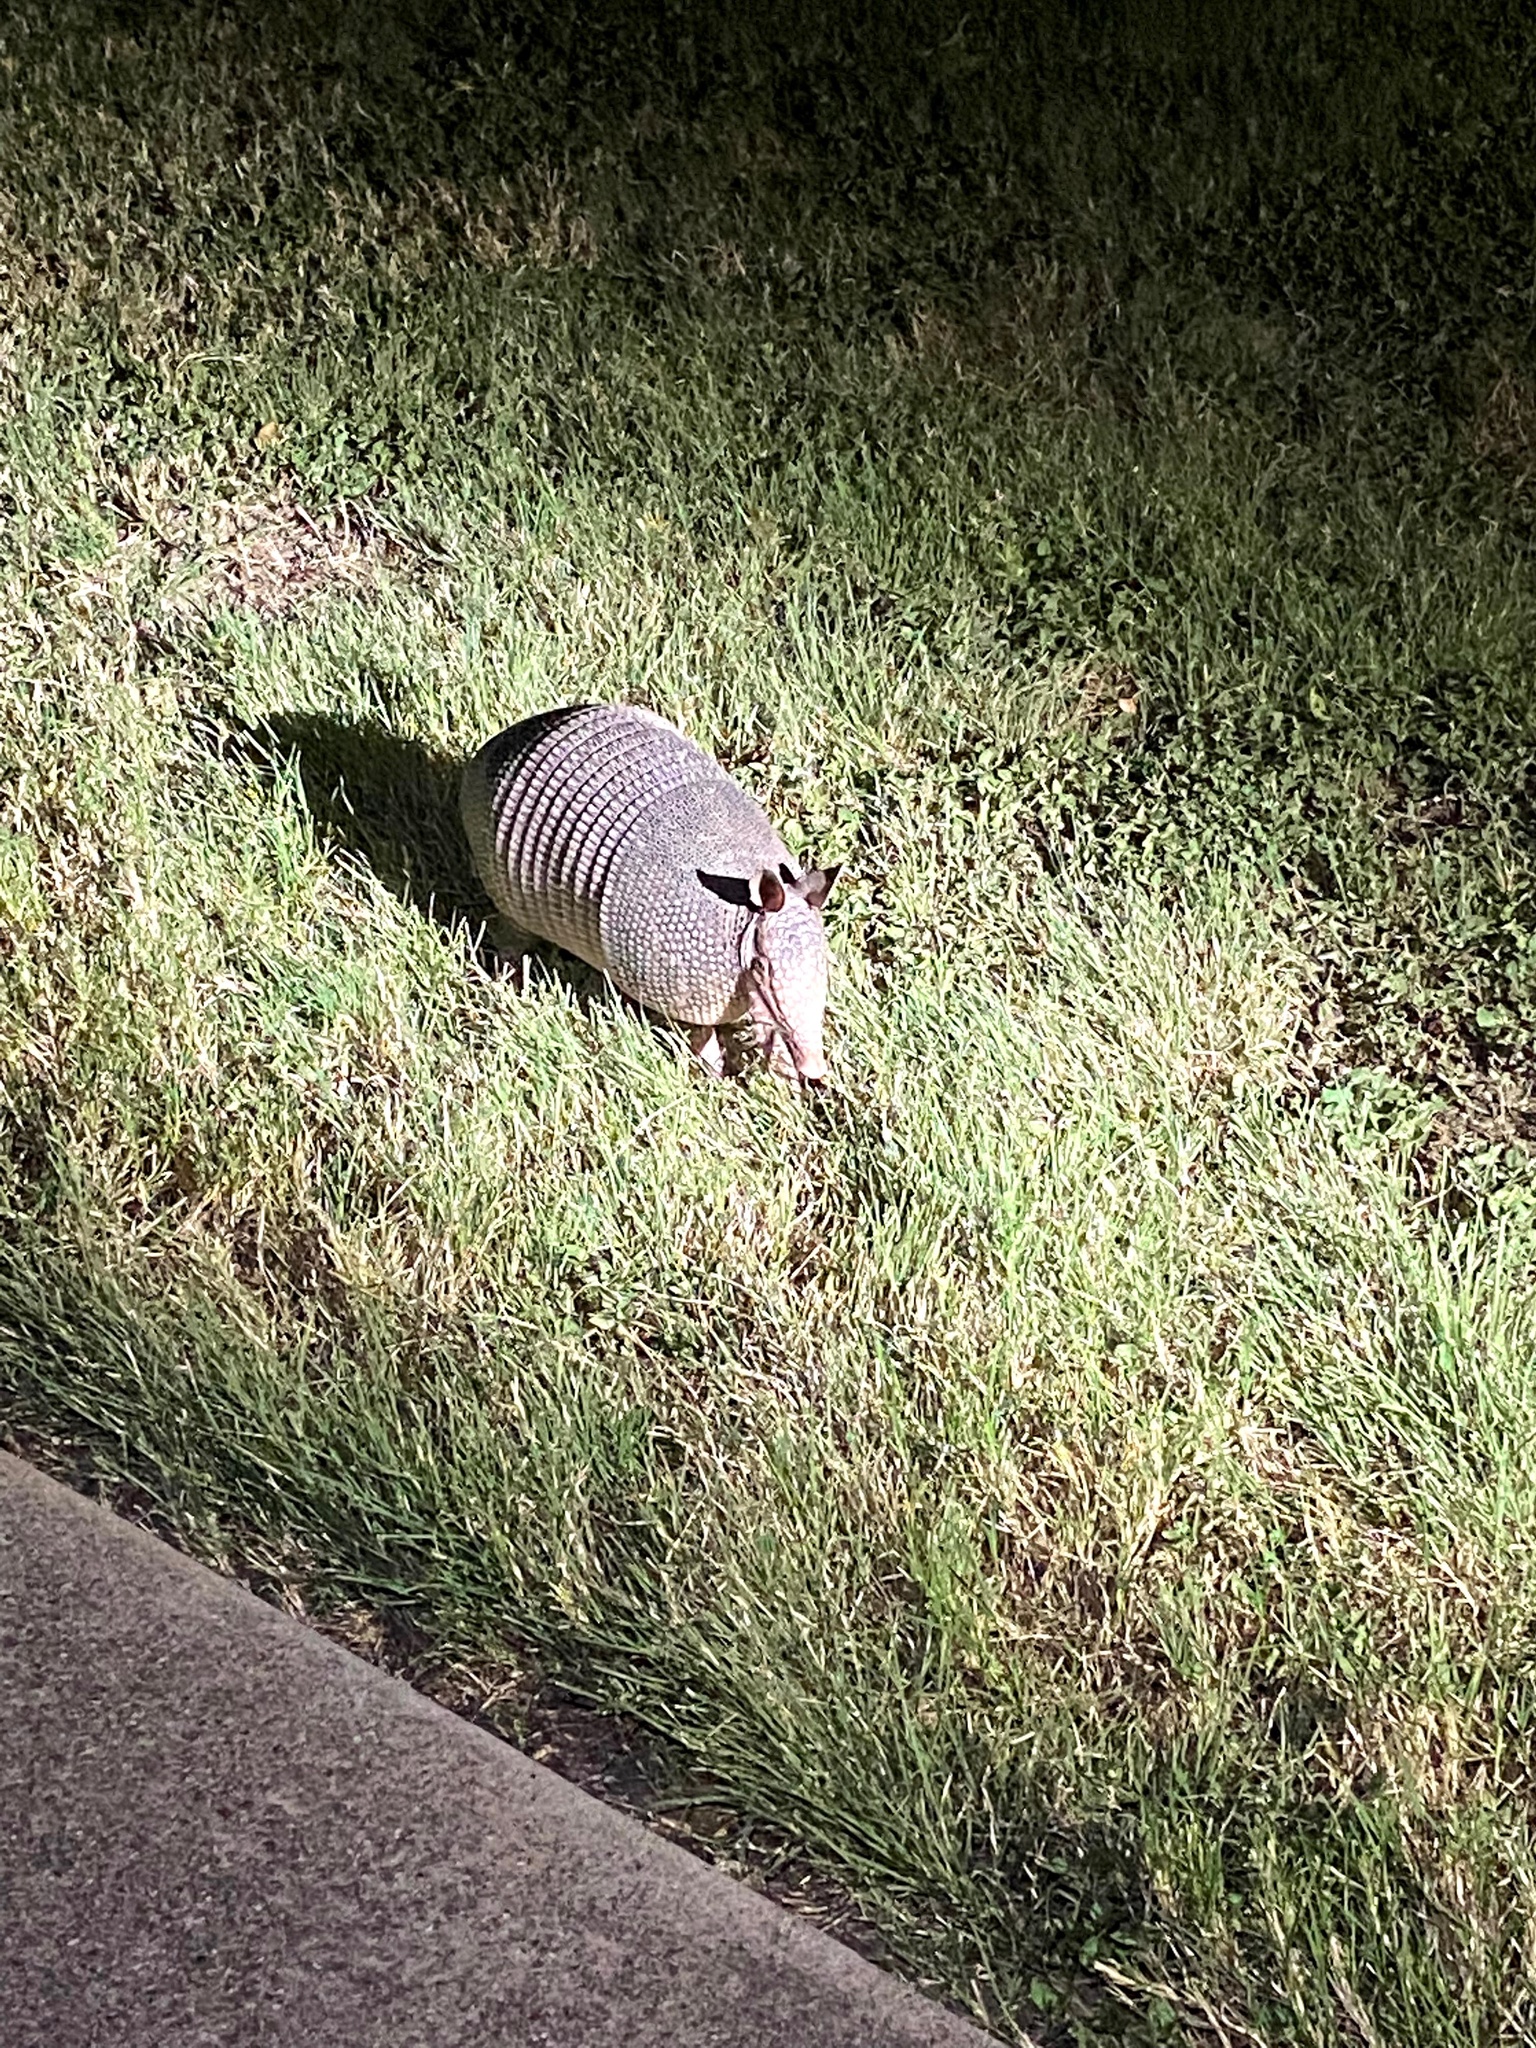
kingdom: Animalia
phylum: Chordata
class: Mammalia
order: Cingulata
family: Dasypodidae
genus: Dasypus
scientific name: Dasypus novemcinctus
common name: Nine-banded armadillo
